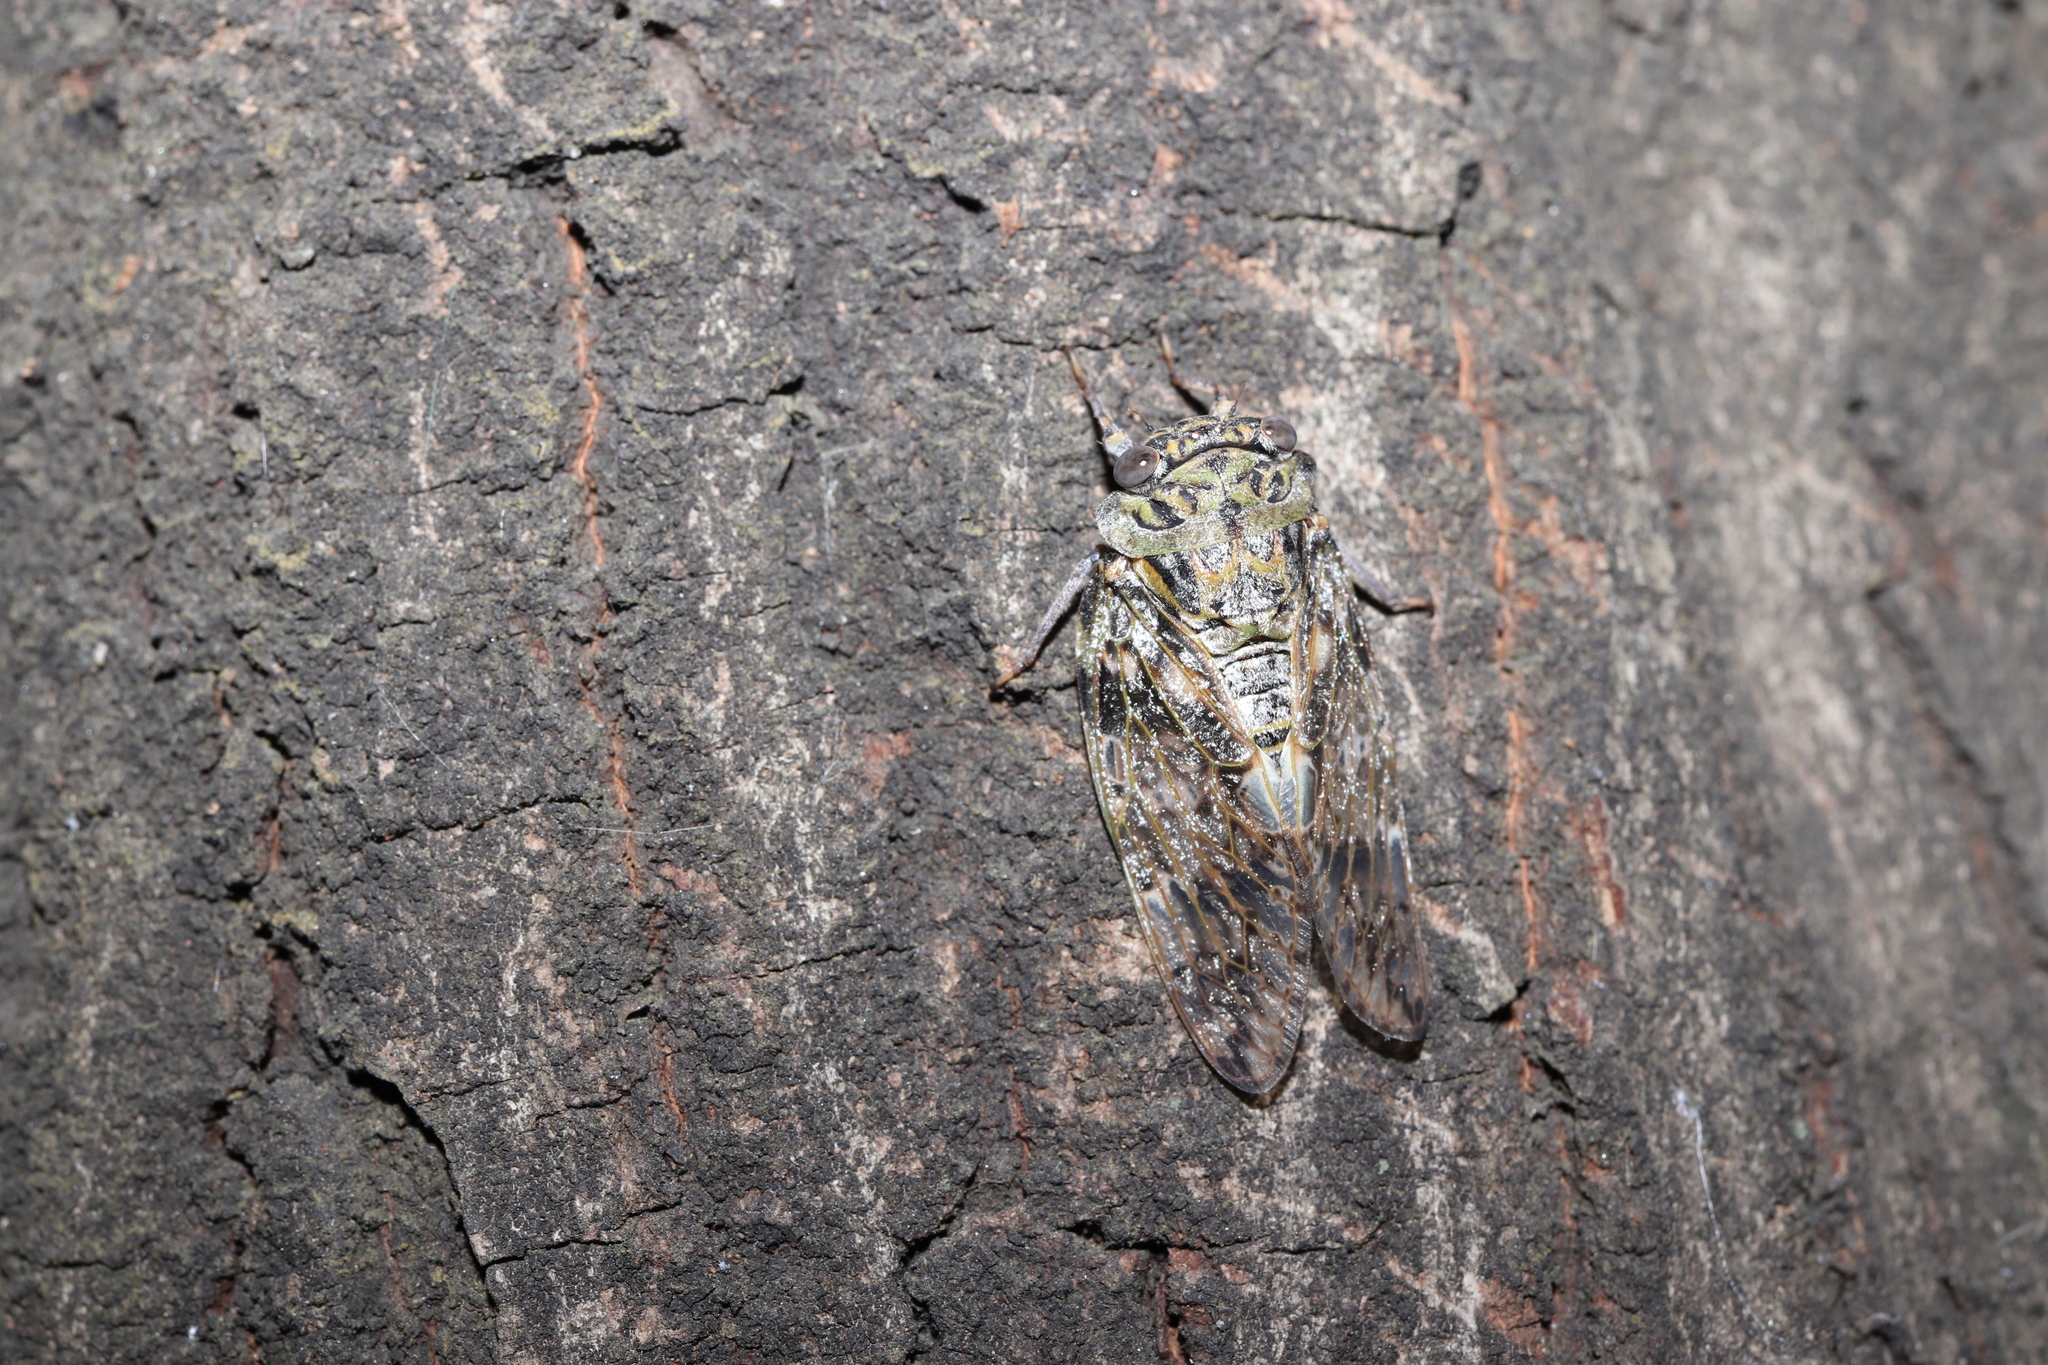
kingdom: Animalia
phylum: Arthropoda
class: Insecta
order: Hemiptera
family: Cicadidae
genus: Platypleura
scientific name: Platypleura kaempferi
